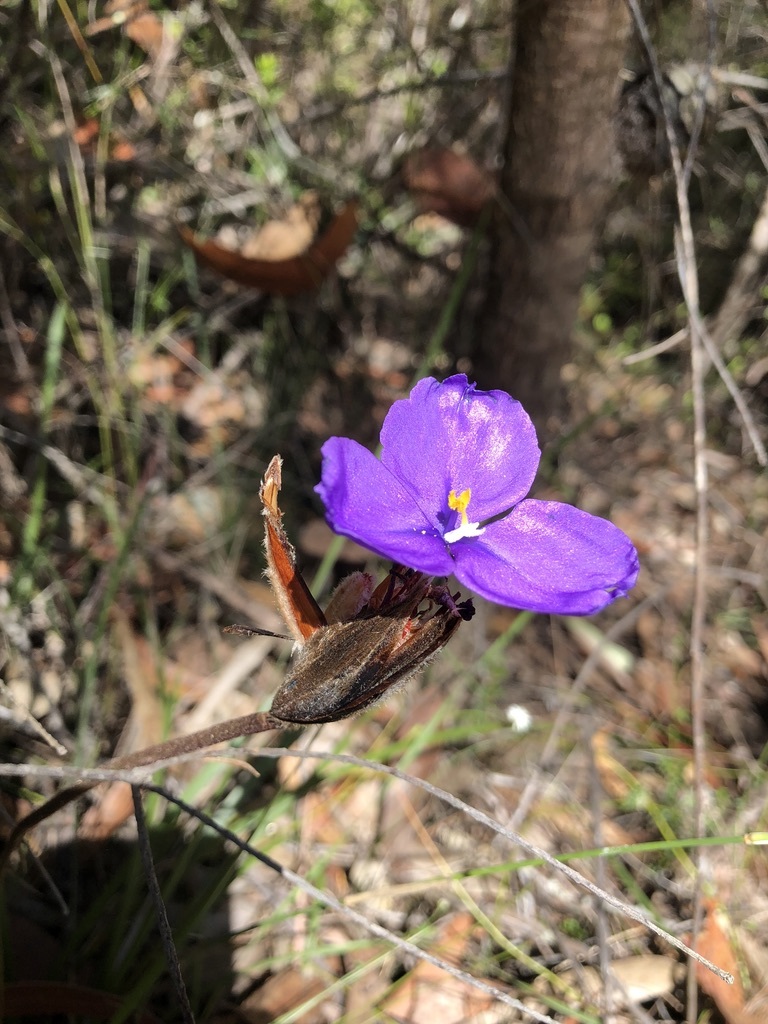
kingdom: Plantae
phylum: Tracheophyta
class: Liliopsida
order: Asparagales
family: Iridaceae
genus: Patersonia
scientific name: Patersonia sericea
